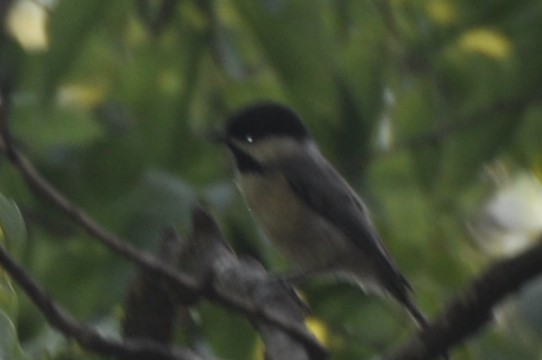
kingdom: Animalia
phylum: Chordata
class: Aves
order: Passeriformes
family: Paridae
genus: Poecile
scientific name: Poecile carolinensis
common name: Carolina chickadee
